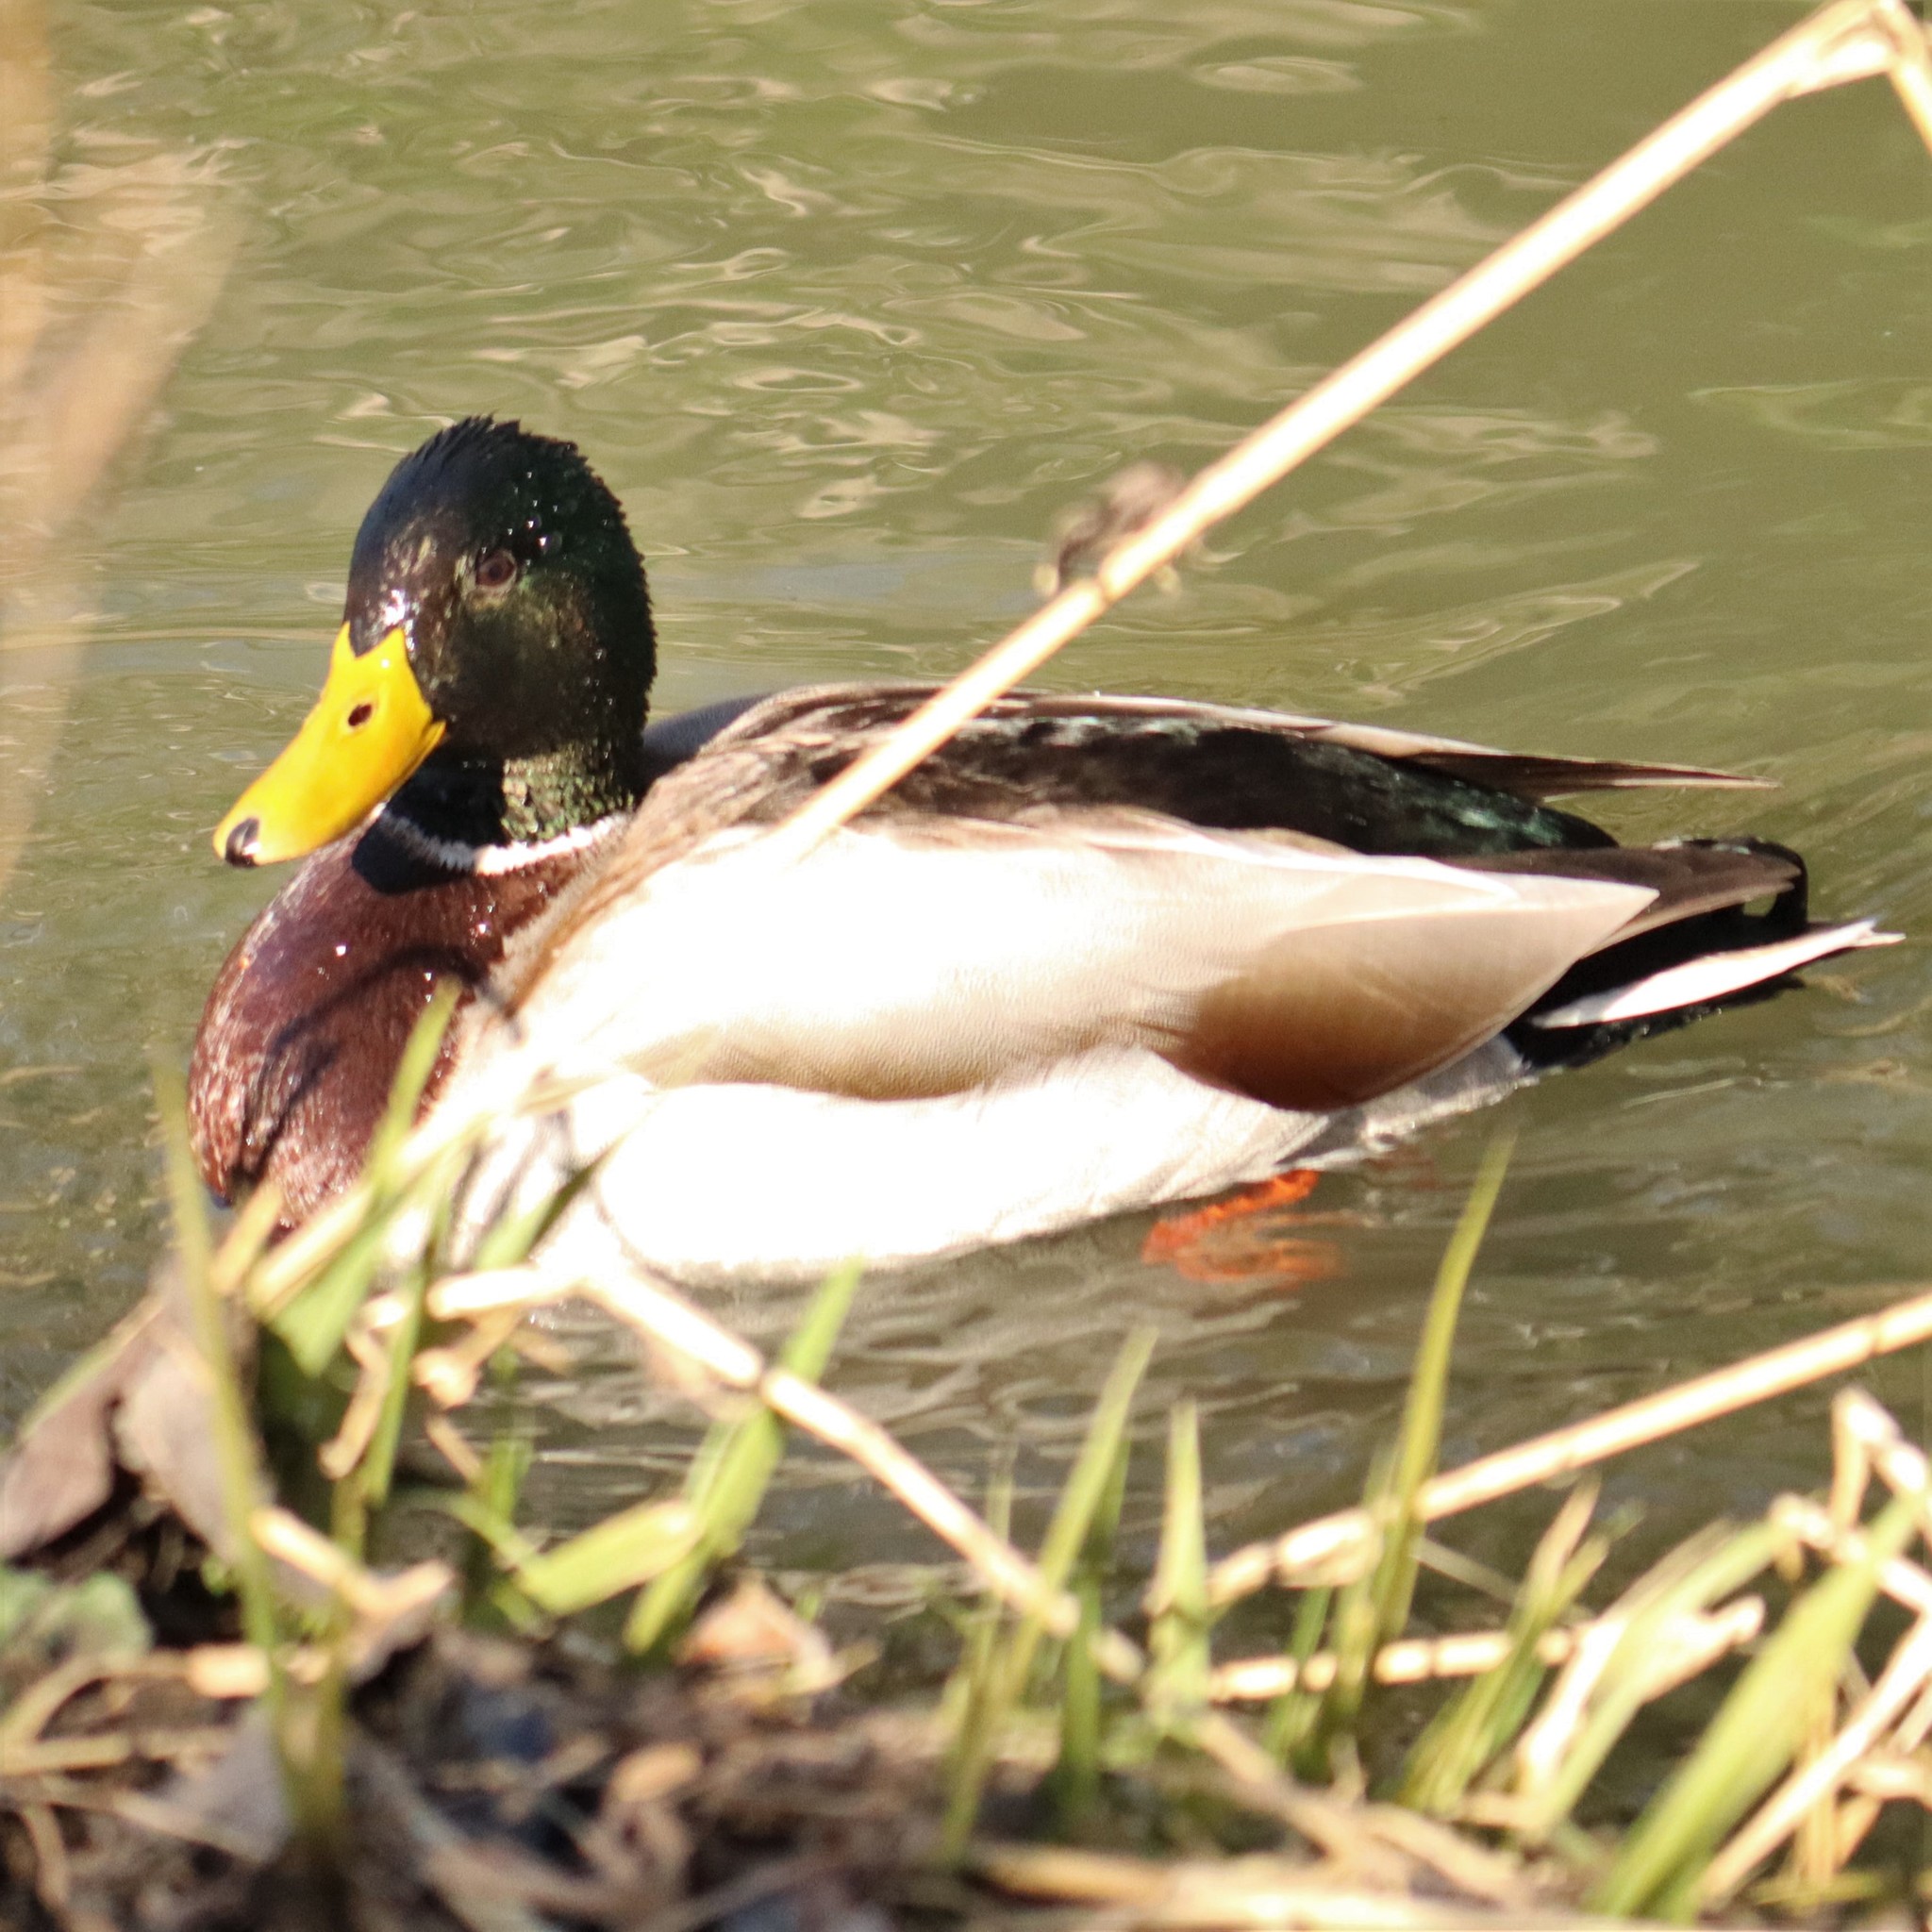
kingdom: Animalia
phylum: Chordata
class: Aves
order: Anseriformes
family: Anatidae
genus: Anas
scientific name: Anas platyrhynchos
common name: Mallard
